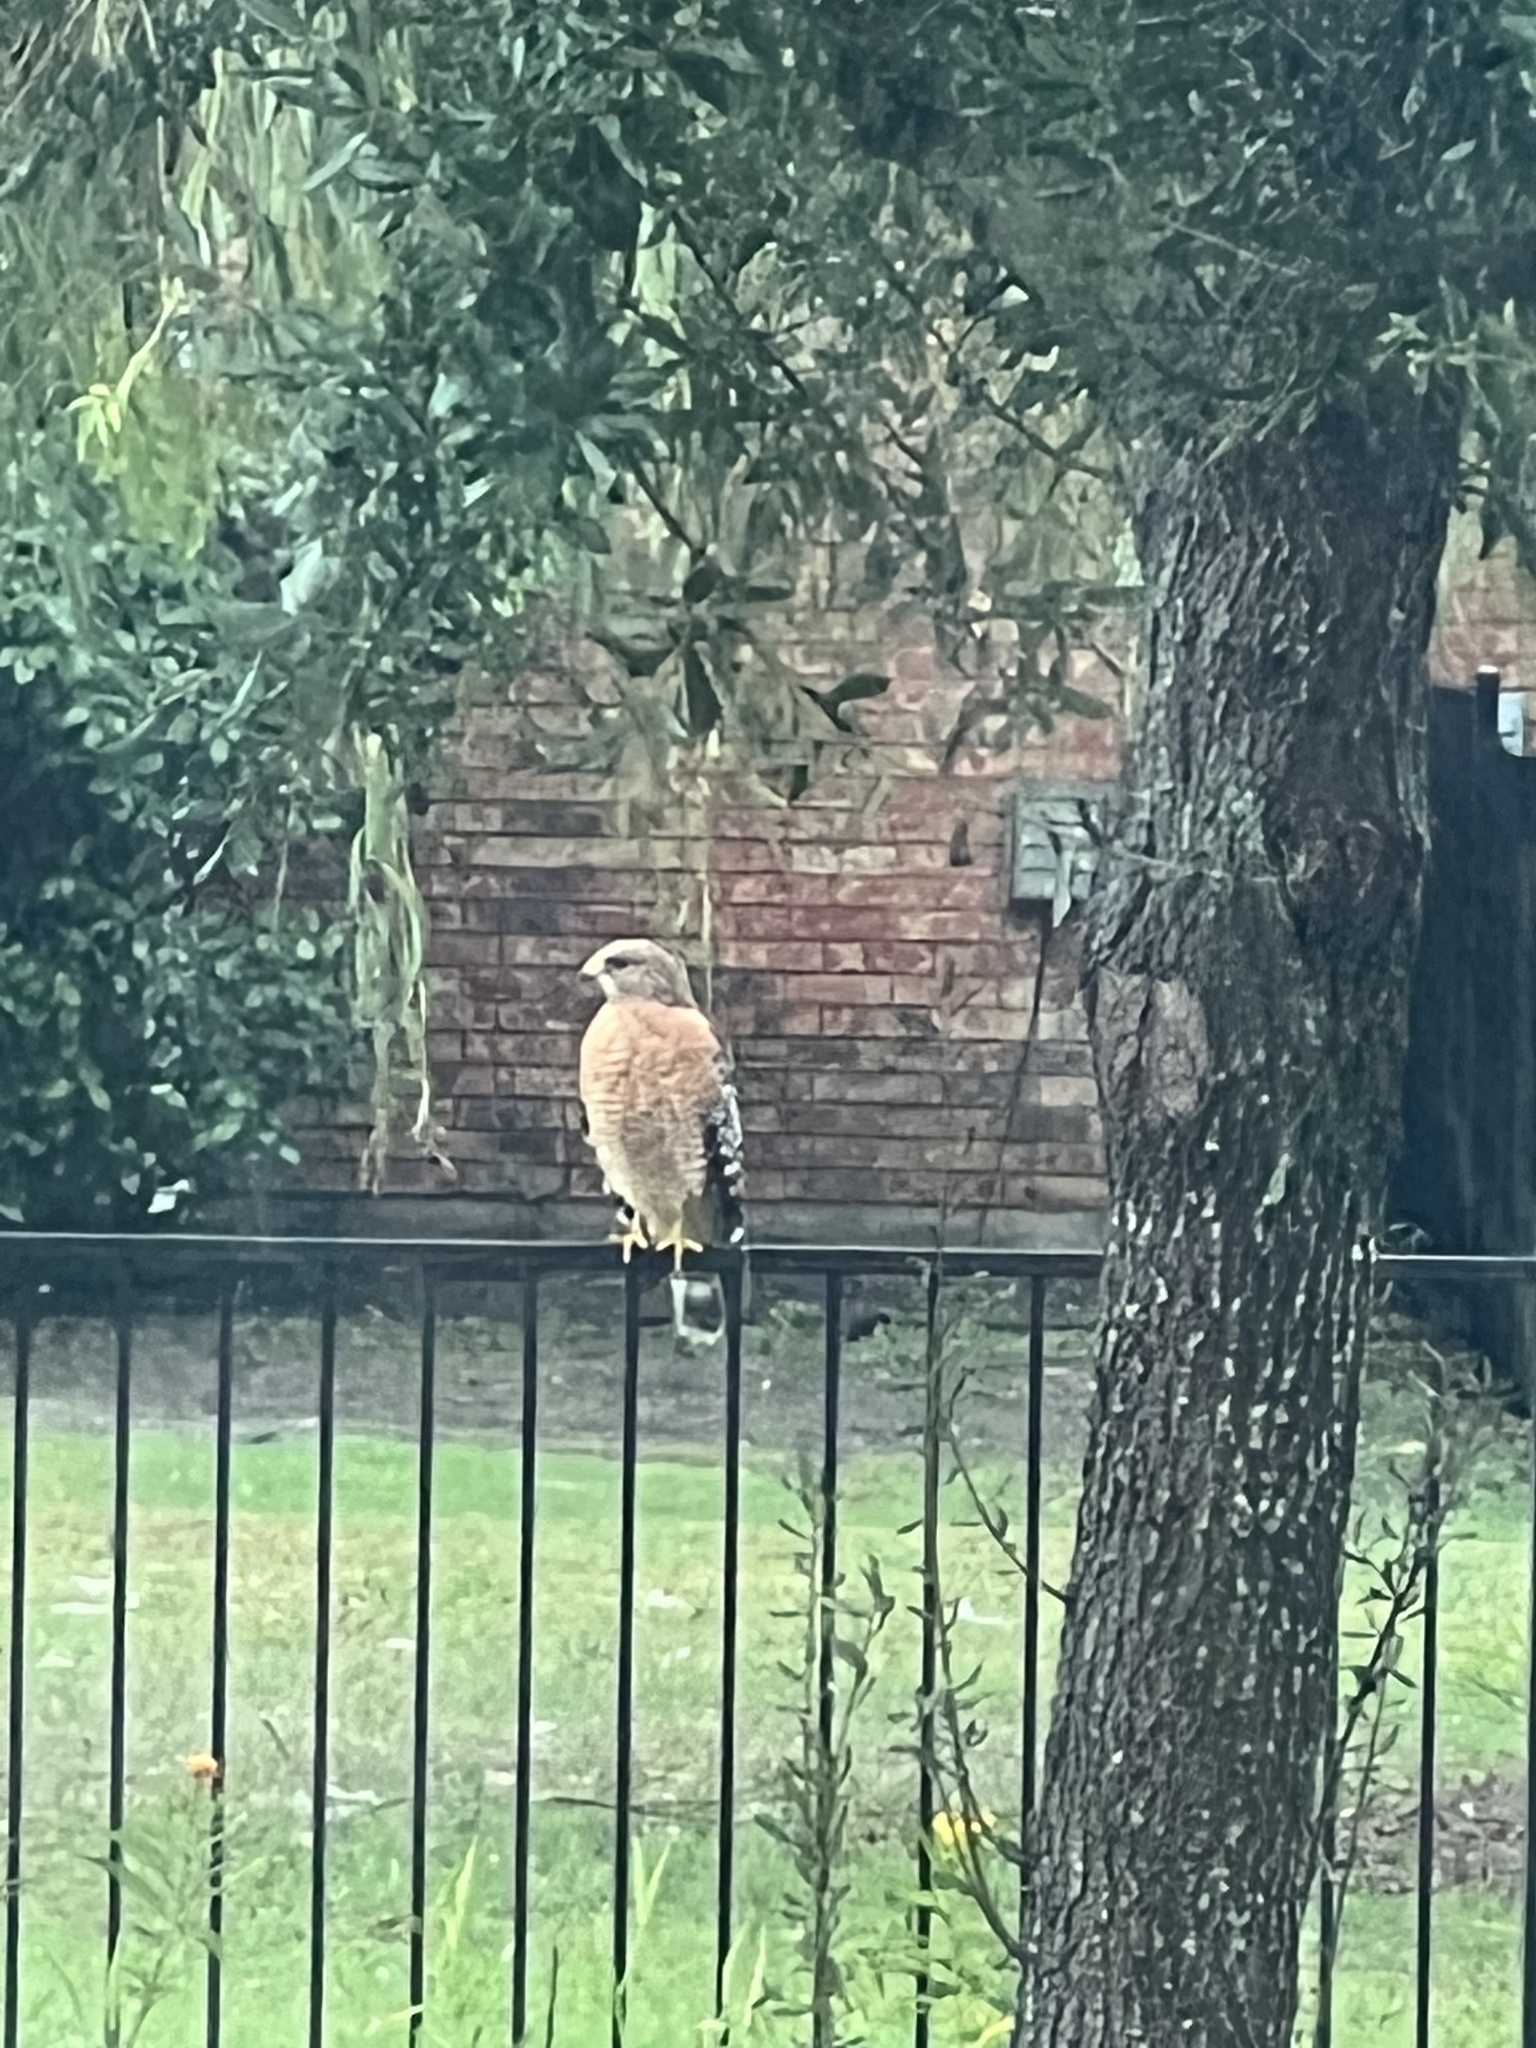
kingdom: Animalia
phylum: Chordata
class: Aves
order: Accipitriformes
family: Accipitridae
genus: Buteo
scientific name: Buteo lineatus
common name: Red-shouldered hawk
